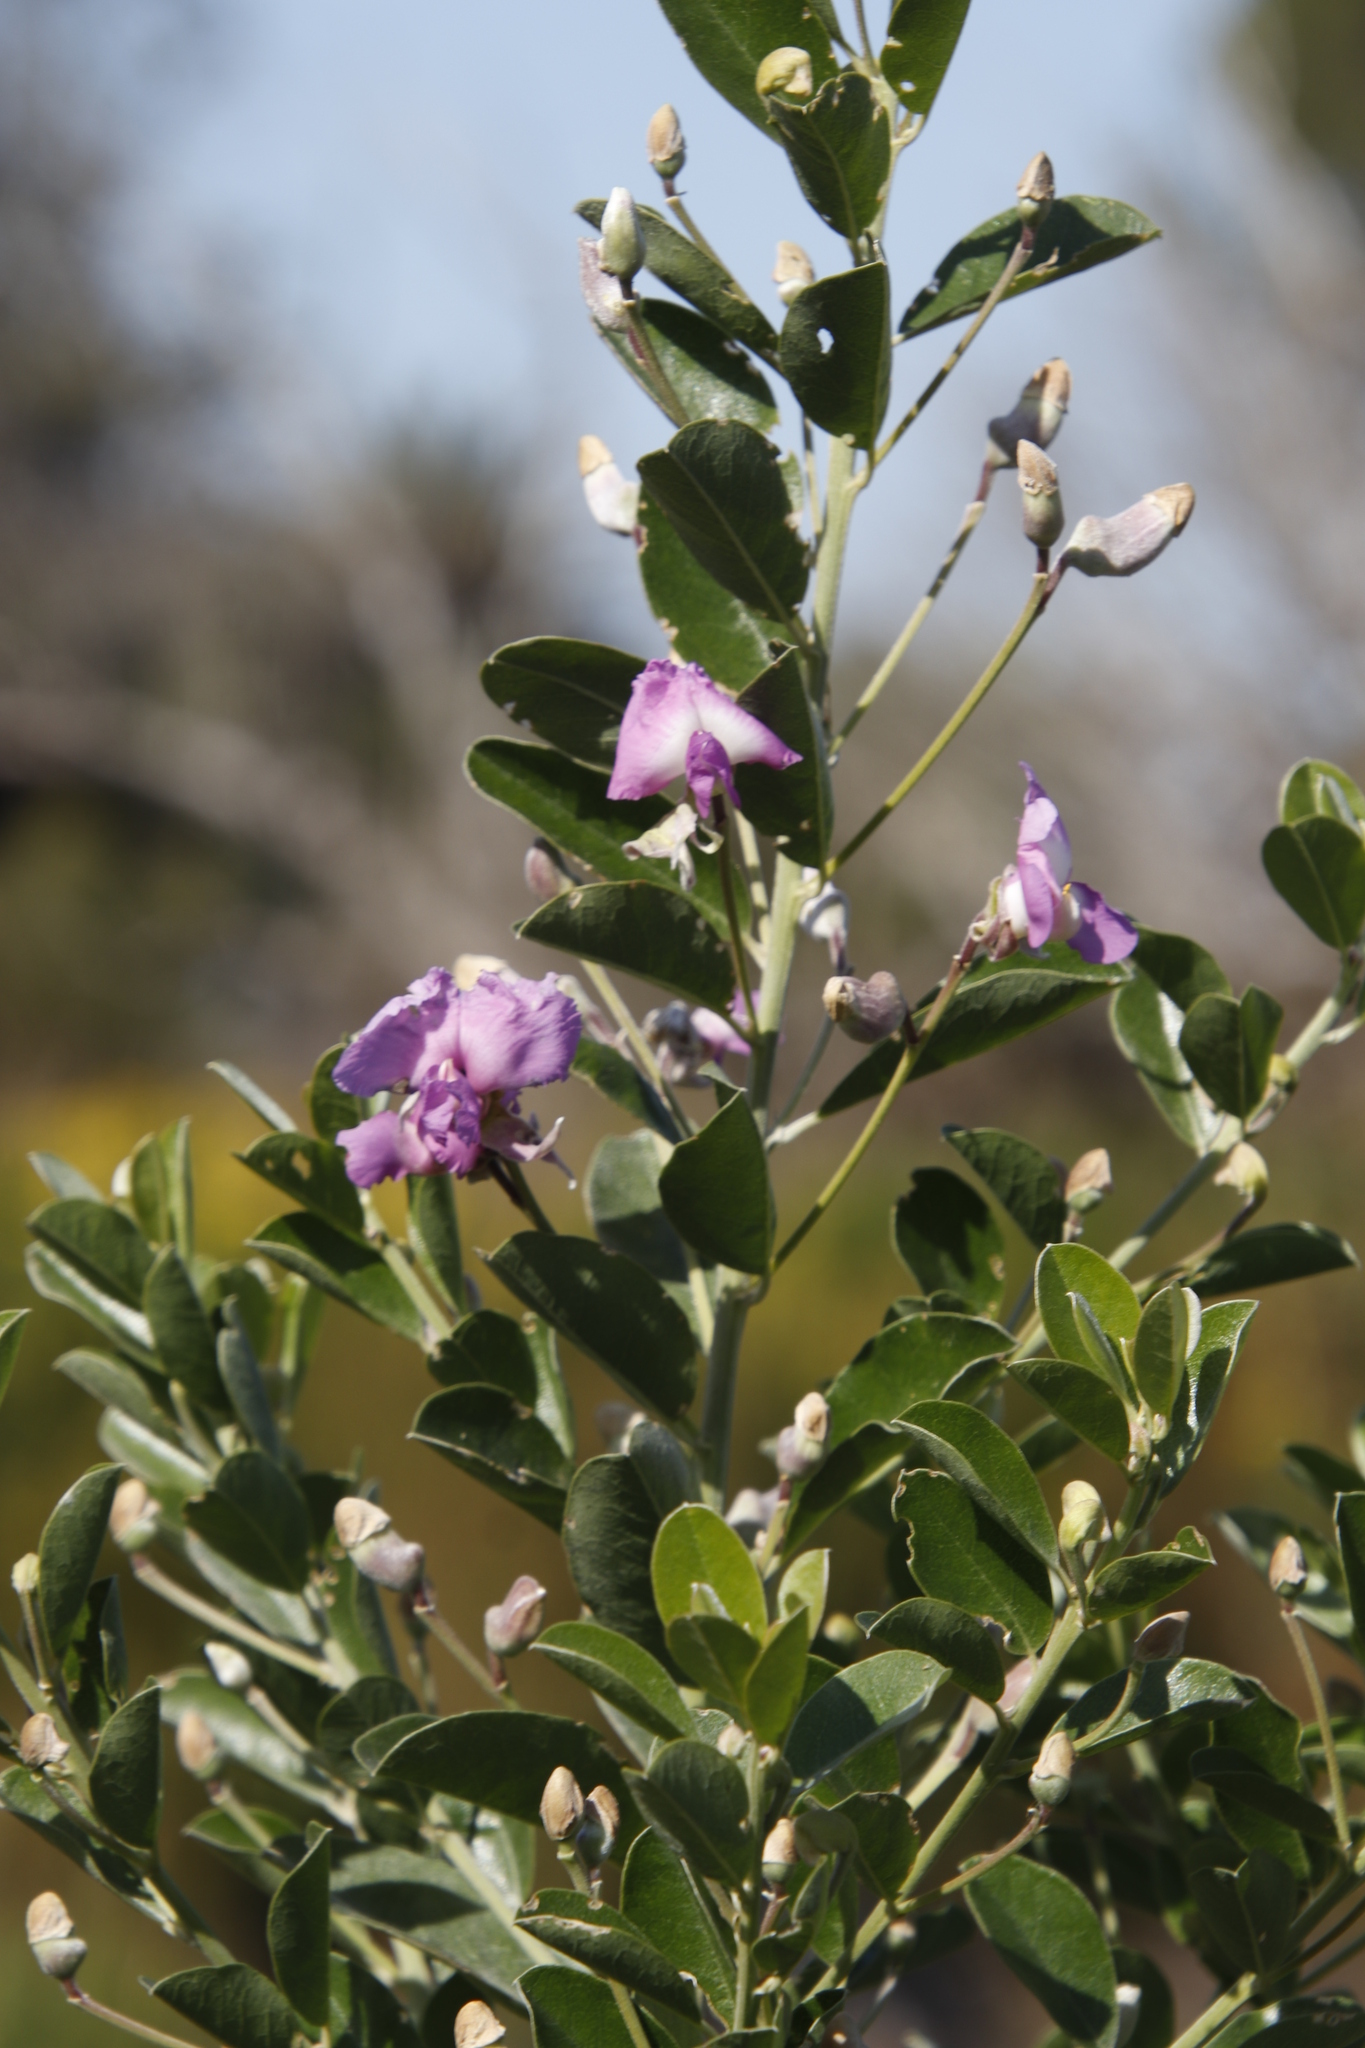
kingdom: Plantae
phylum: Tracheophyta
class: Magnoliopsida
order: Fabales
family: Fabaceae
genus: Podalyria
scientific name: Podalyria calyptrata
